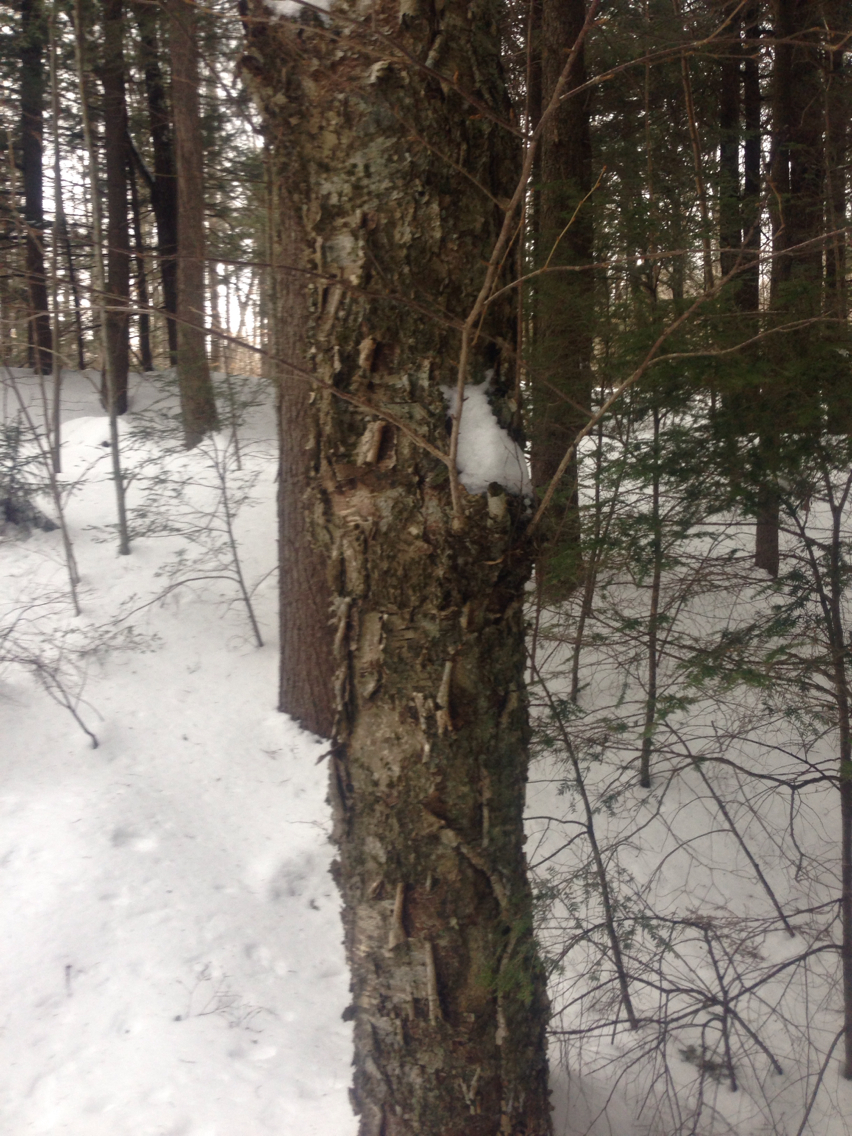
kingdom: Plantae
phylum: Tracheophyta
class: Magnoliopsida
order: Fagales
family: Betulaceae
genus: Betula
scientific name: Betula alleghaniensis
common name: Yellow birch
